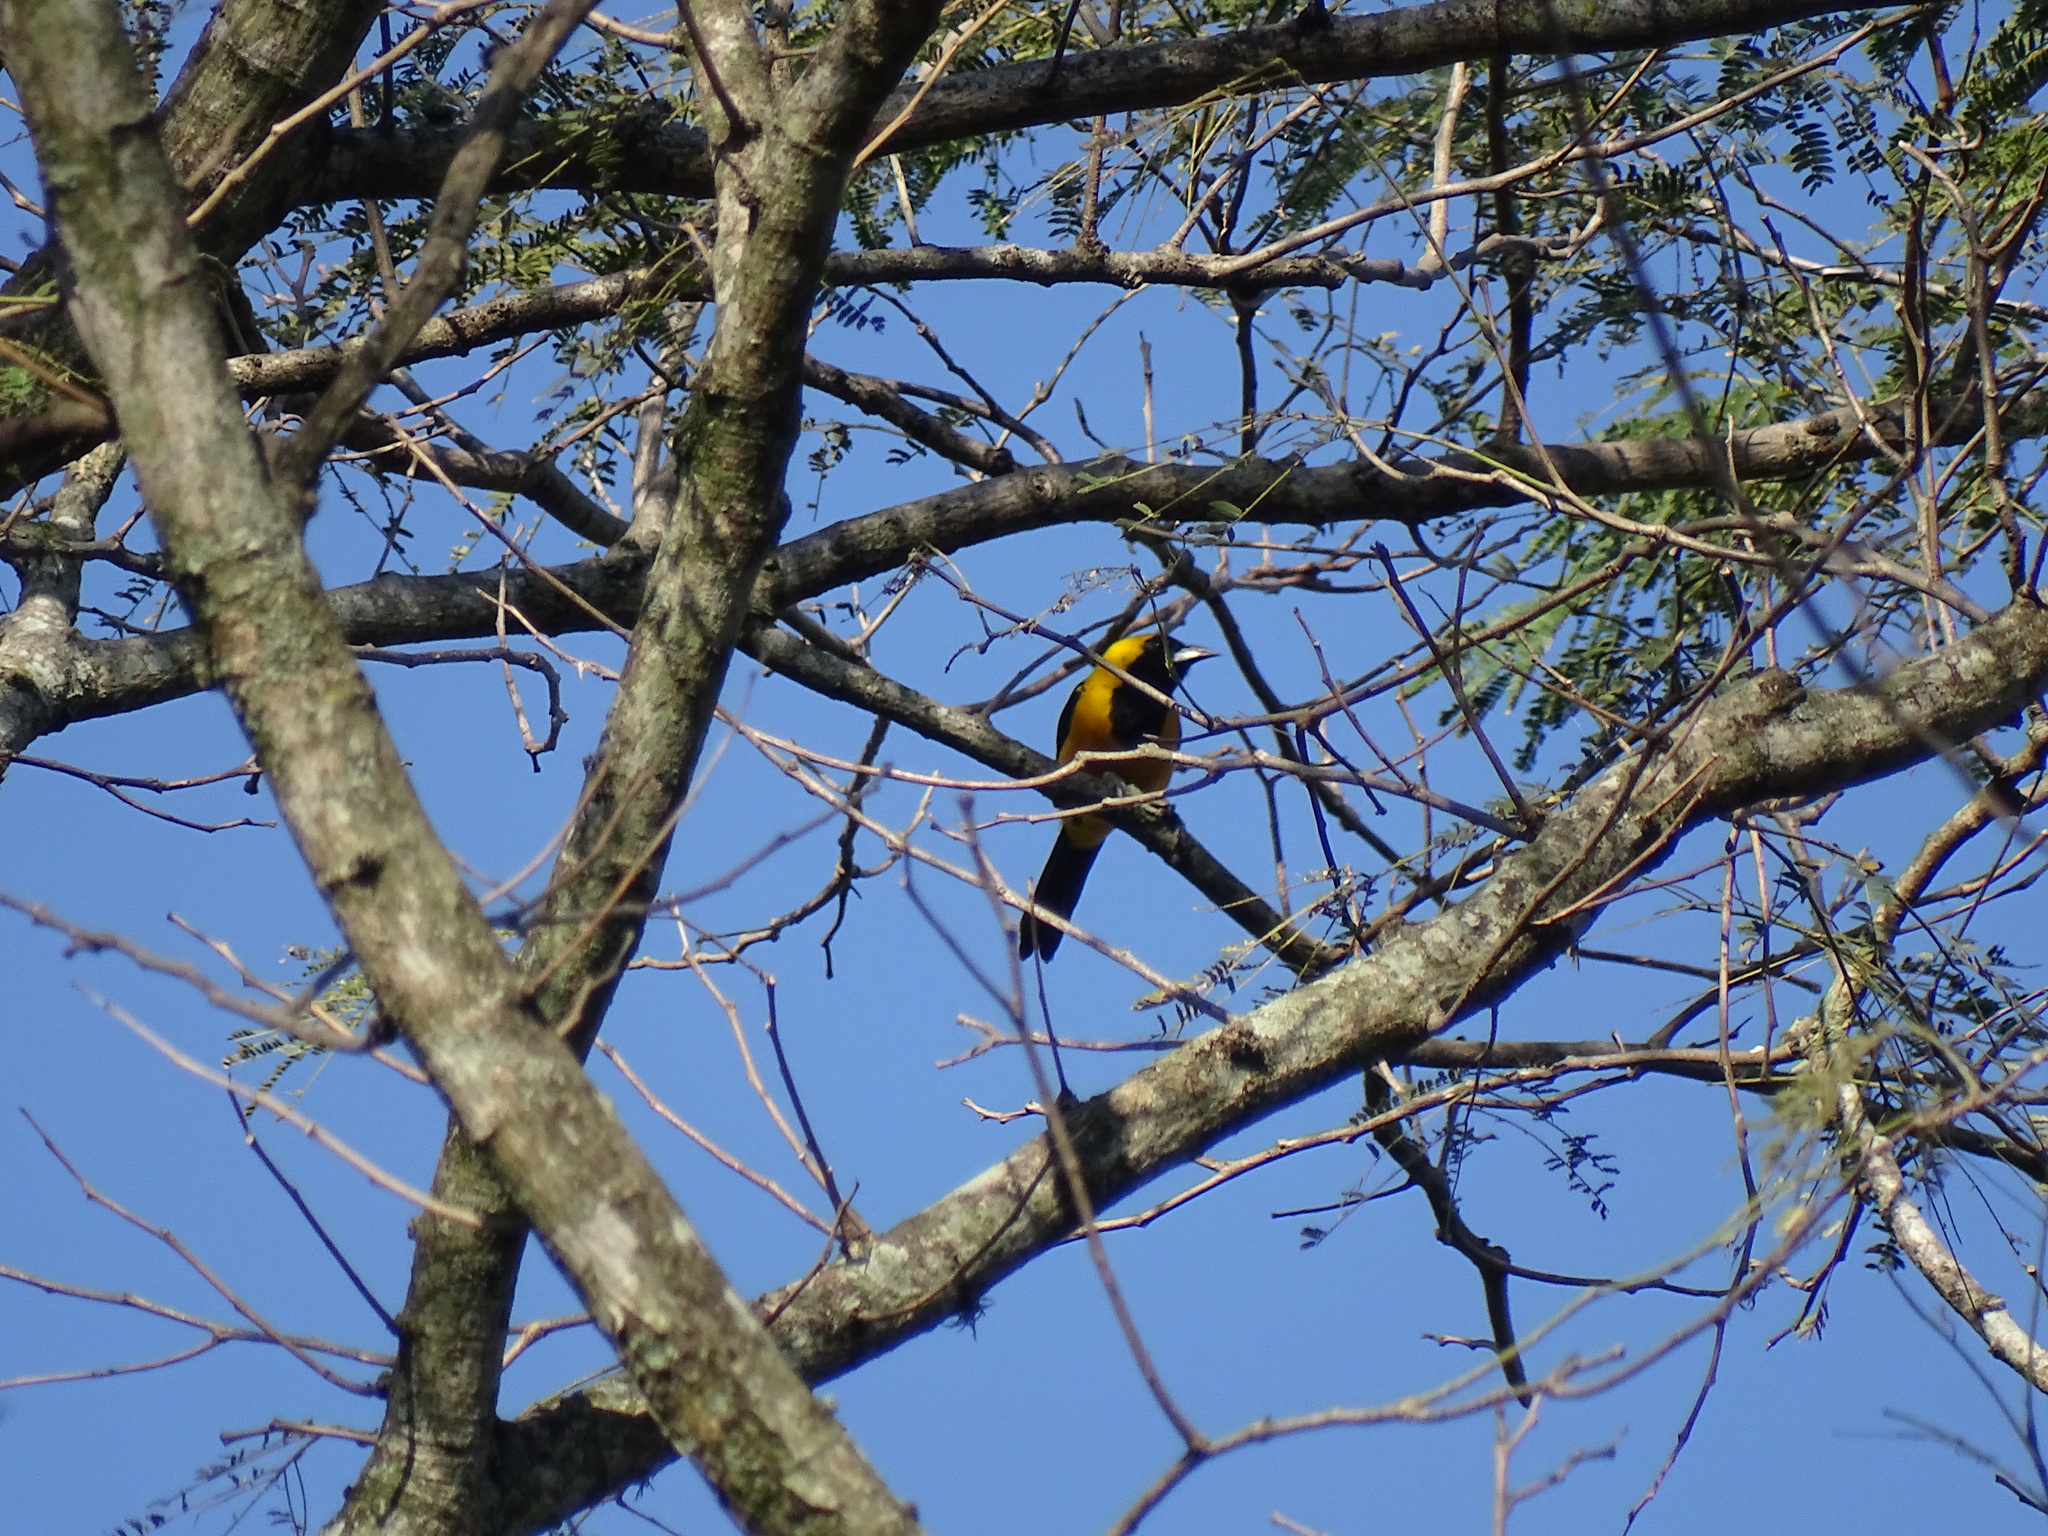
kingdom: Animalia
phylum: Chordata
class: Aves
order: Passeriformes
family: Icteridae
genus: Icterus
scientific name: Icterus chrysater
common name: Yellow-backed oriole
